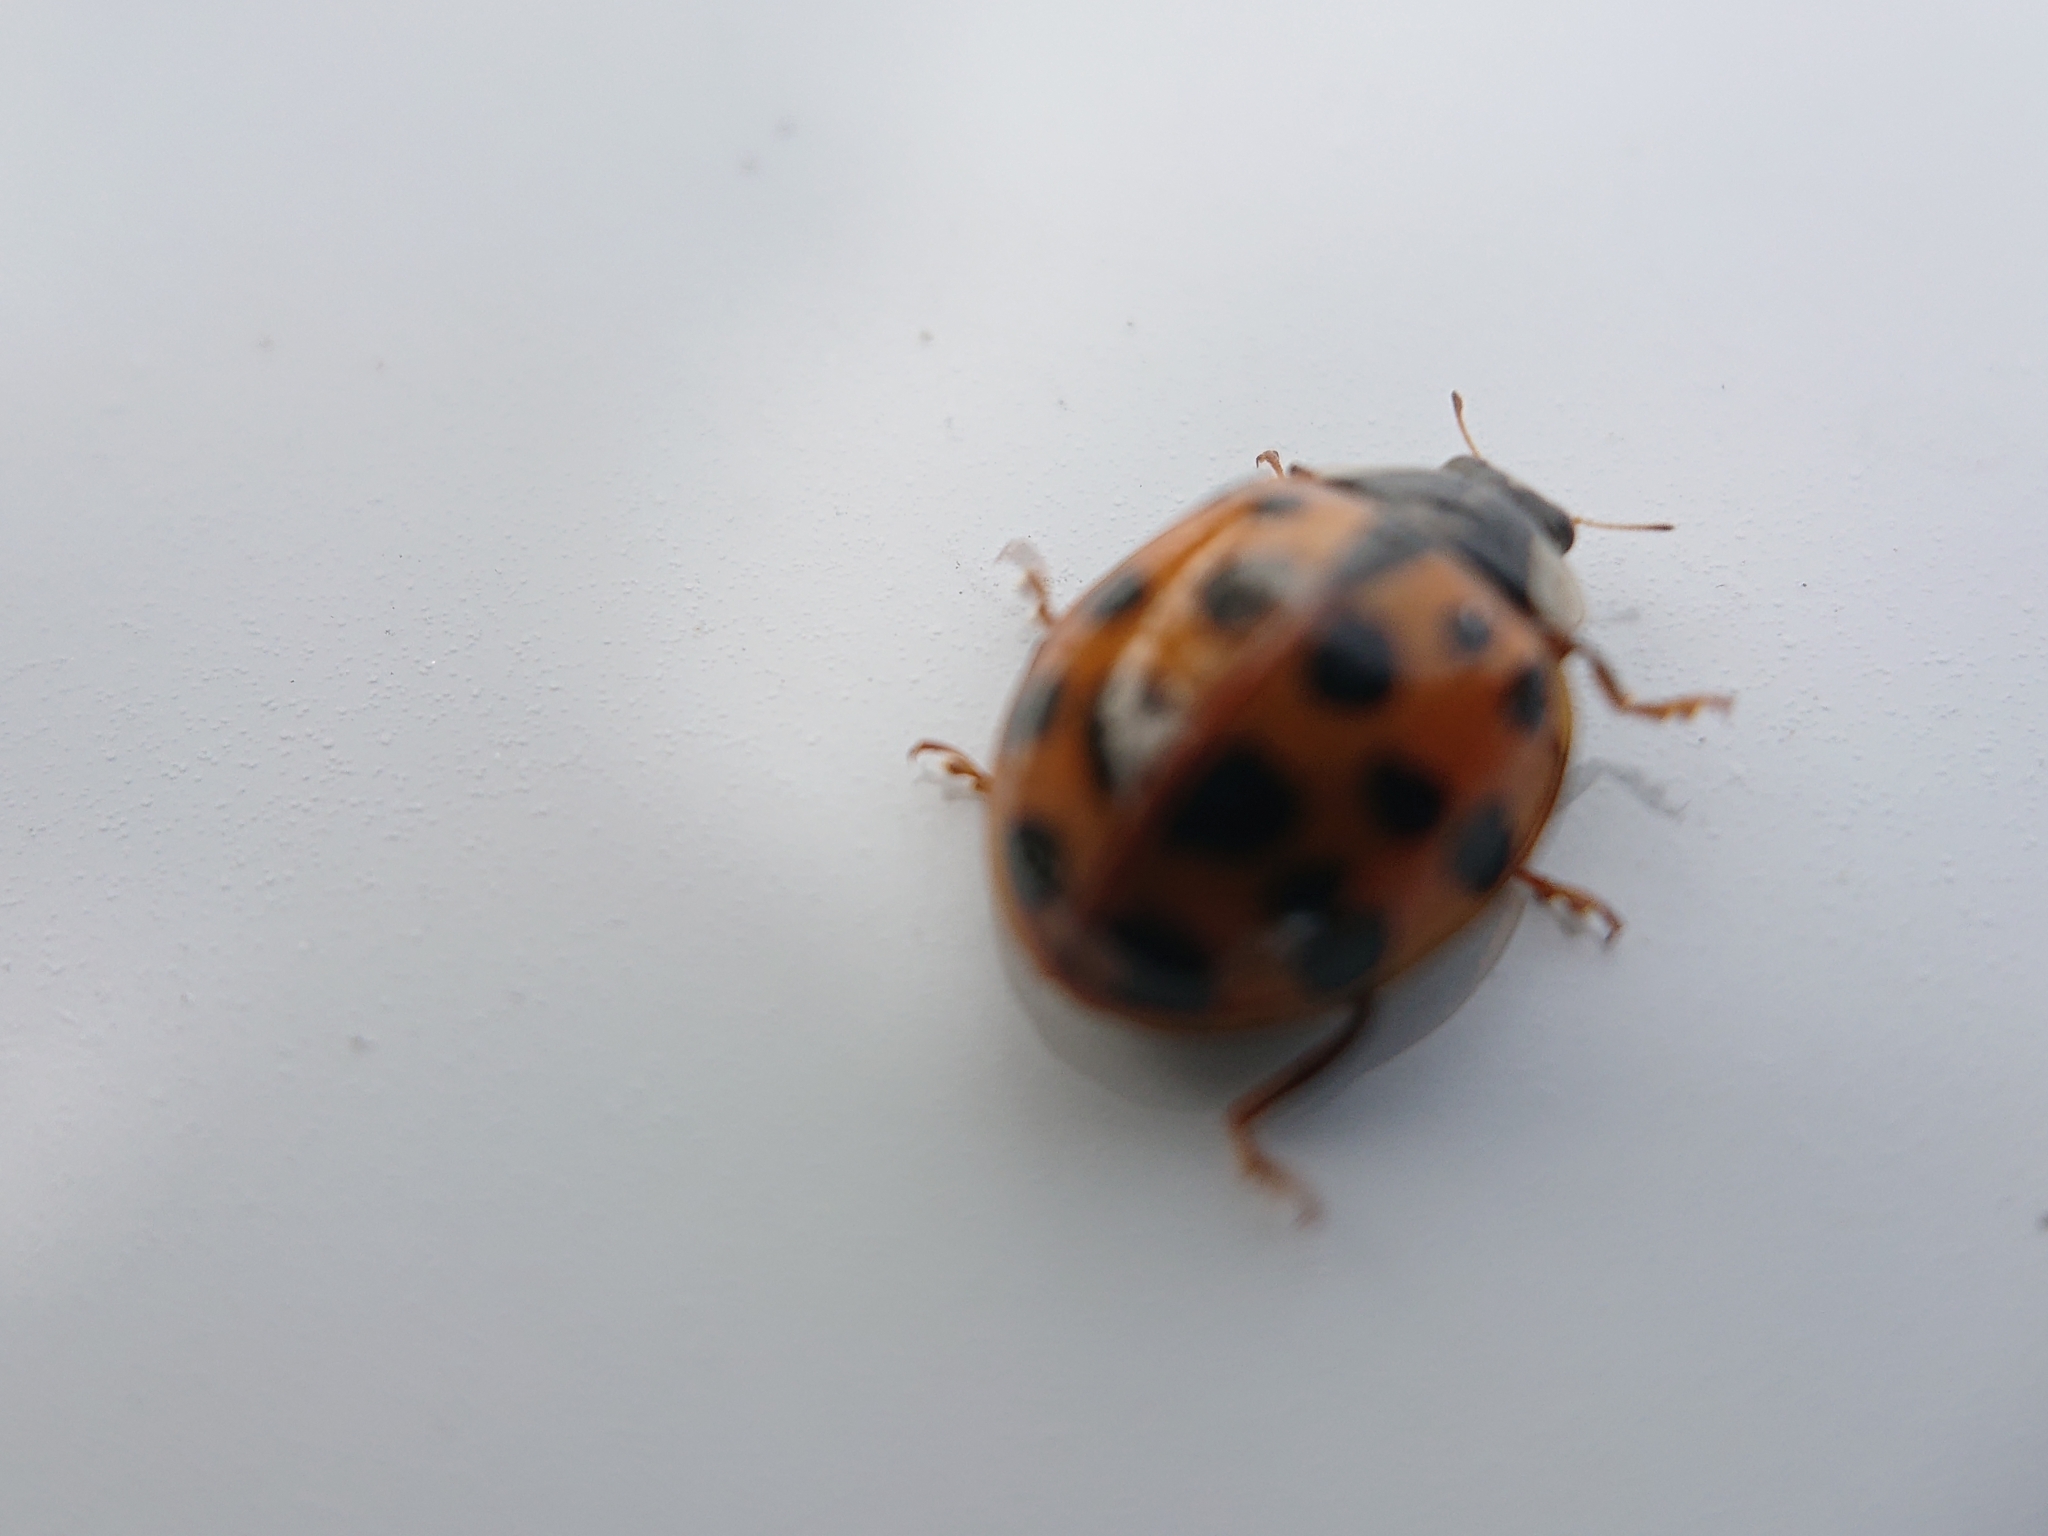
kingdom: Animalia
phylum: Arthropoda
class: Insecta
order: Coleoptera
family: Coccinellidae
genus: Harmonia
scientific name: Harmonia axyridis
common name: Harlequin ladybird
